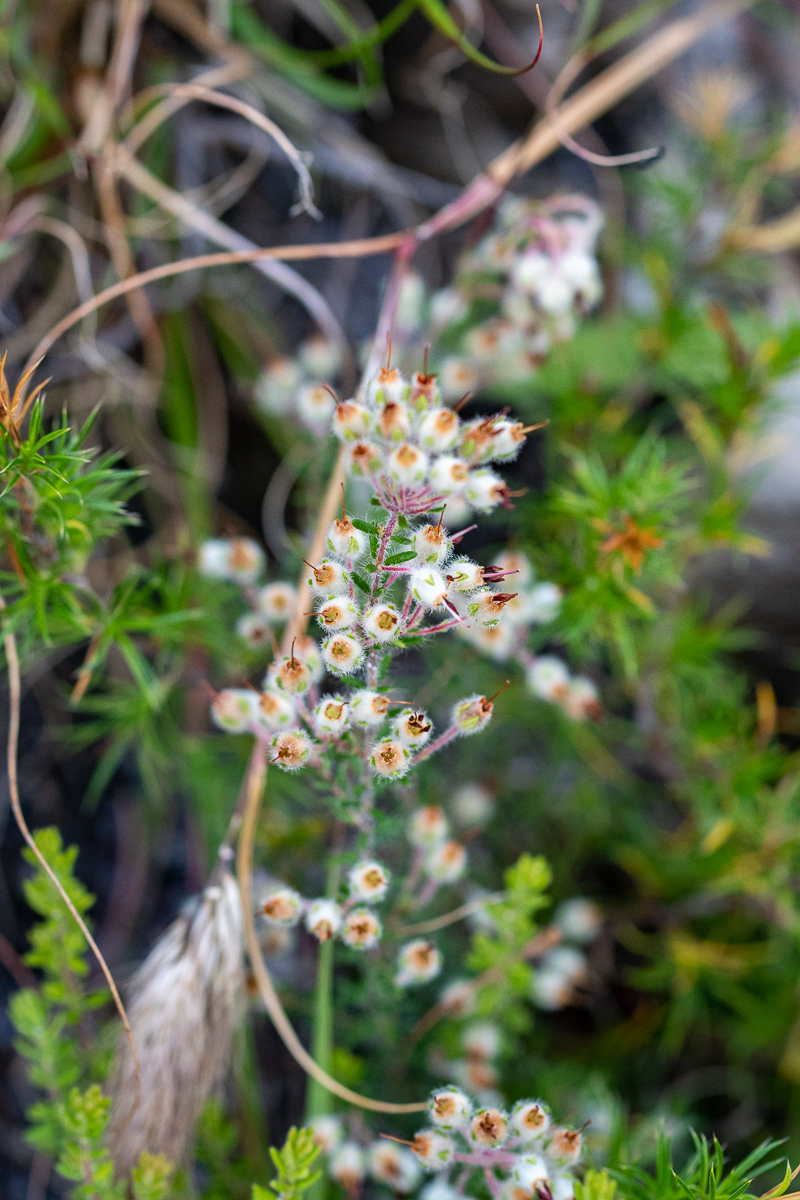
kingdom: Plantae
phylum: Tracheophyta
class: Magnoliopsida
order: Ericales
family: Ericaceae
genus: Erica
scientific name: Erica villosa
